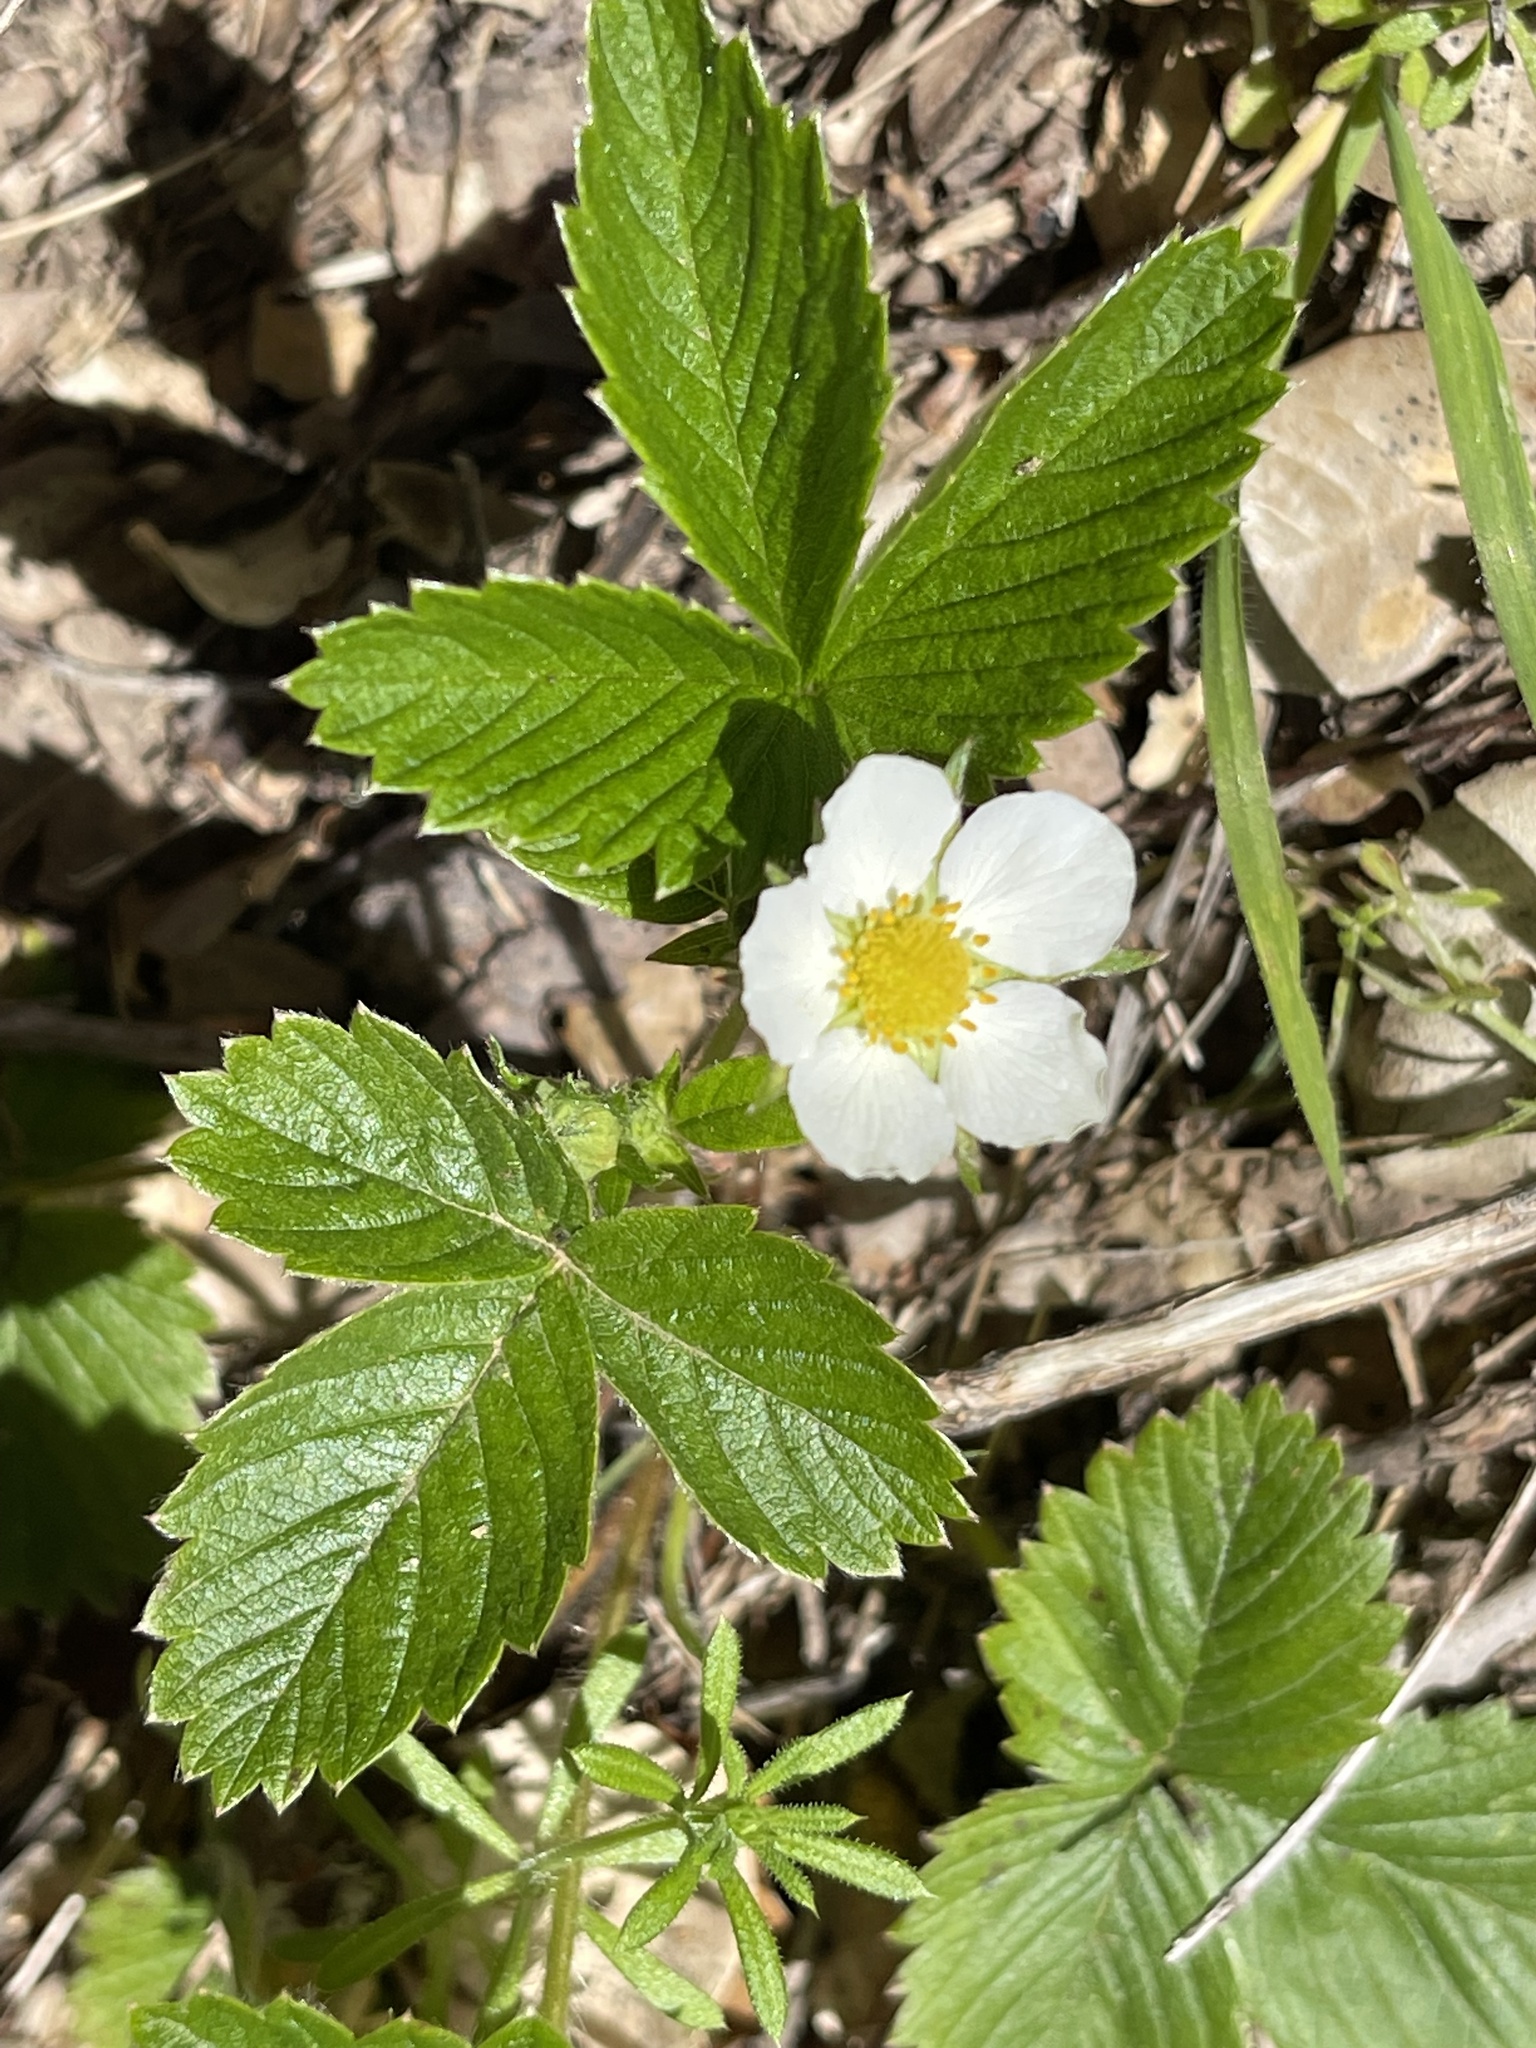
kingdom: Plantae
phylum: Tracheophyta
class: Magnoliopsida
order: Rosales
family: Rosaceae
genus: Fragaria
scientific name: Fragaria vesca
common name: Wild strawberry
